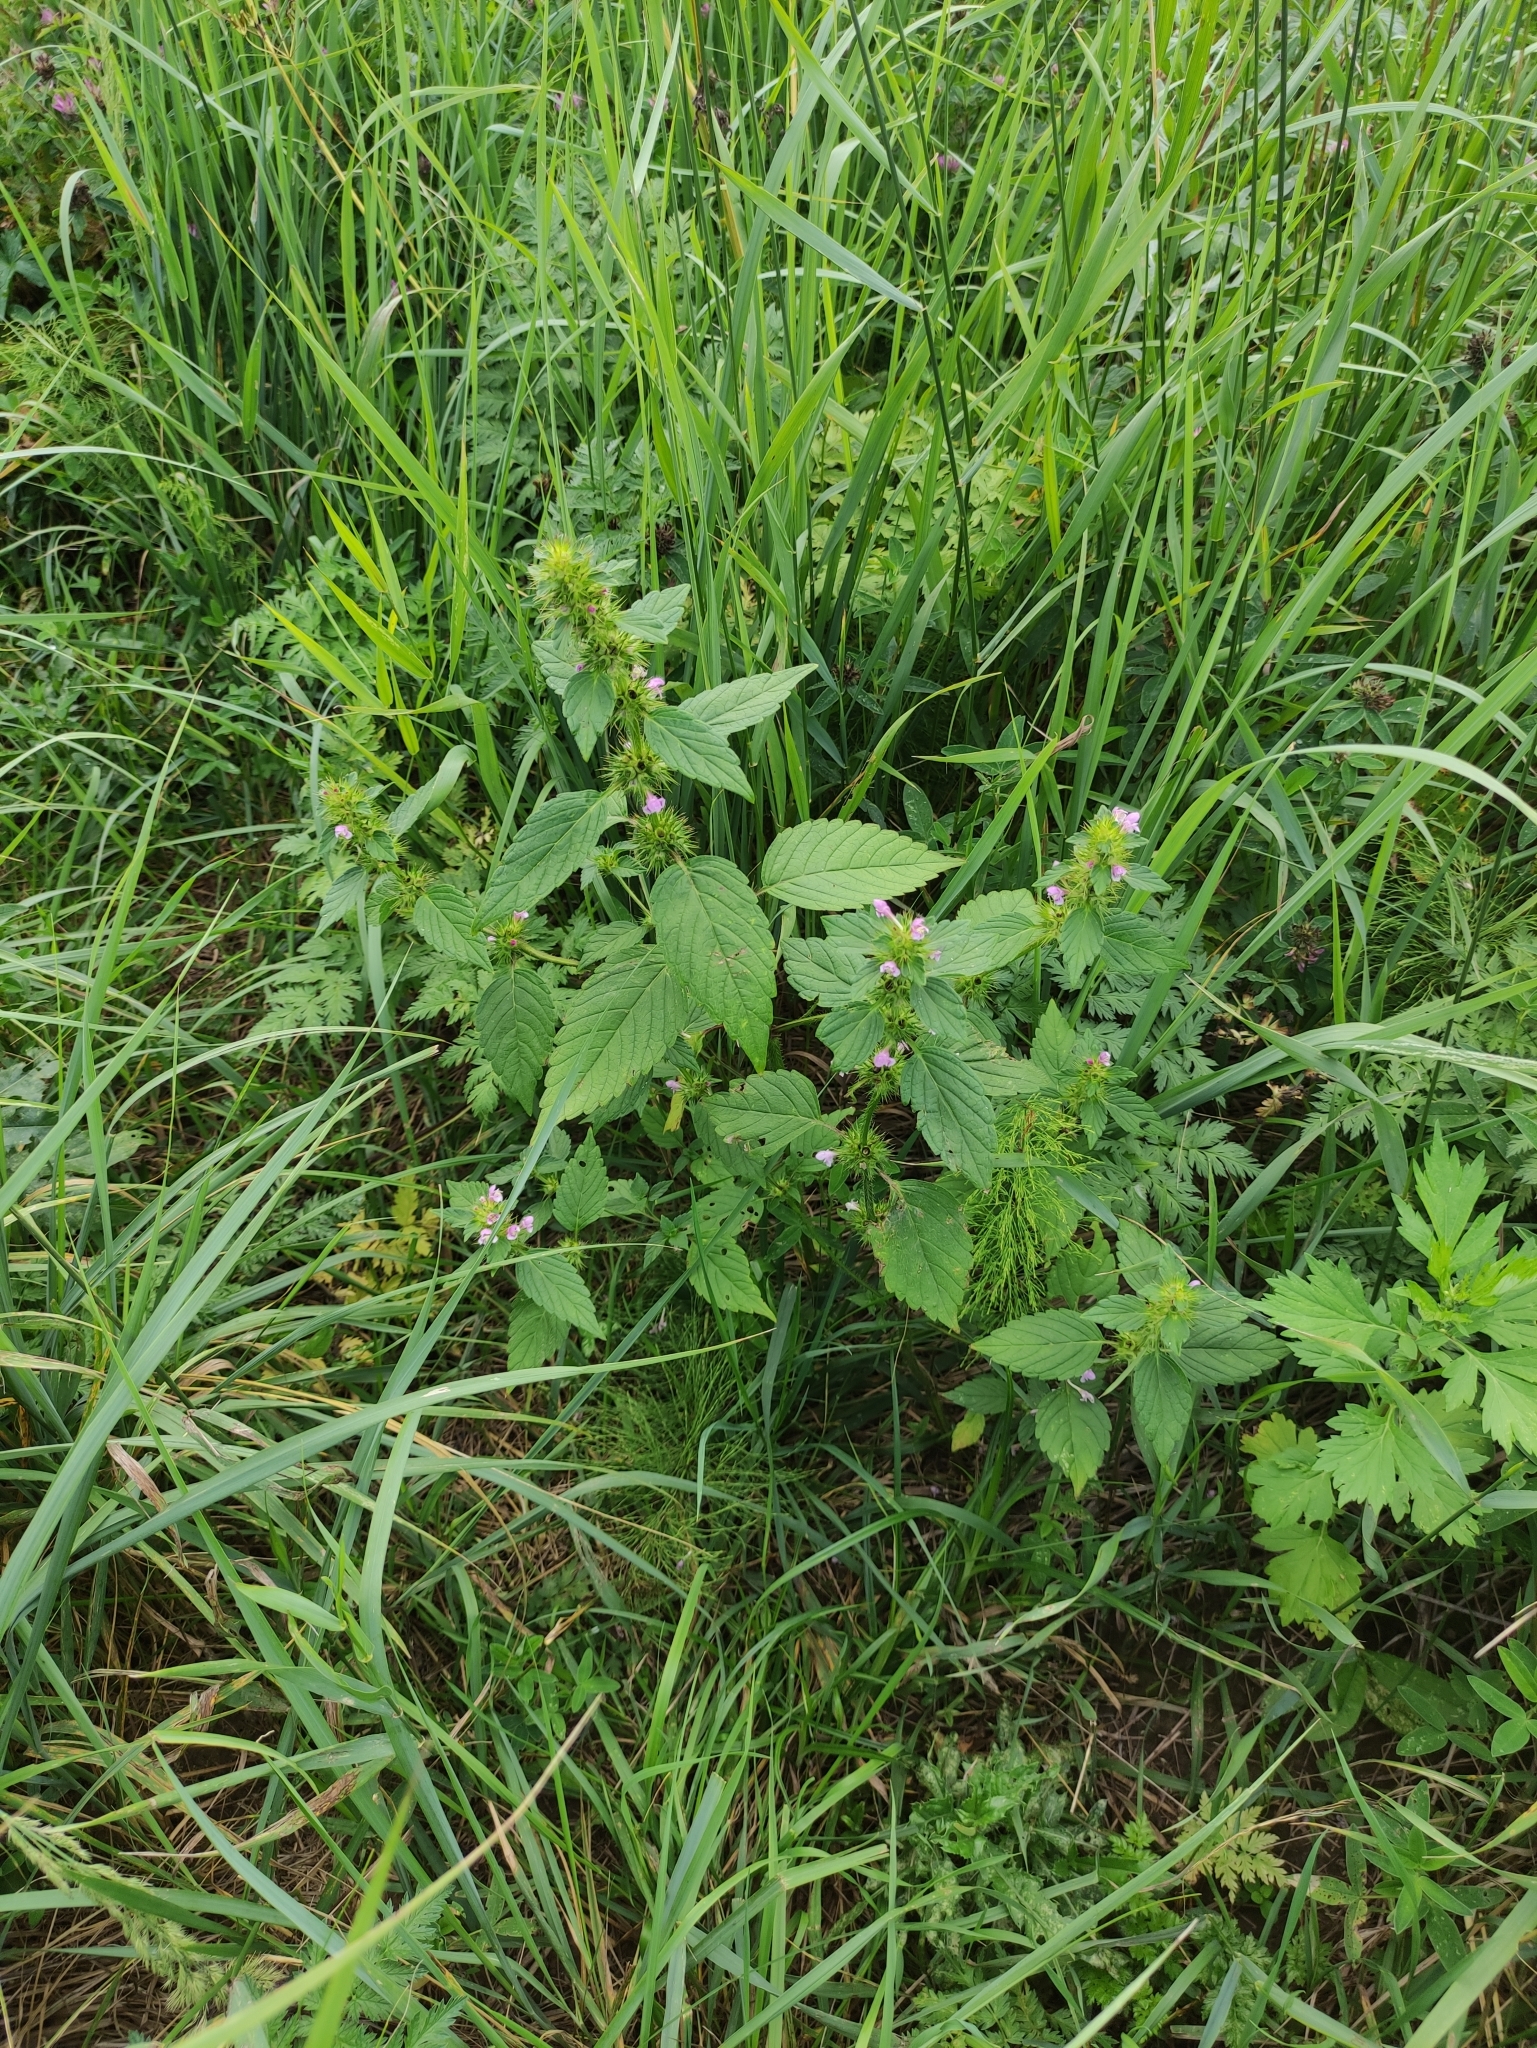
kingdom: Plantae
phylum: Tracheophyta
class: Magnoliopsida
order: Lamiales
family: Lamiaceae
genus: Galeopsis
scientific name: Galeopsis bifida
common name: Bifid hemp-nettle
